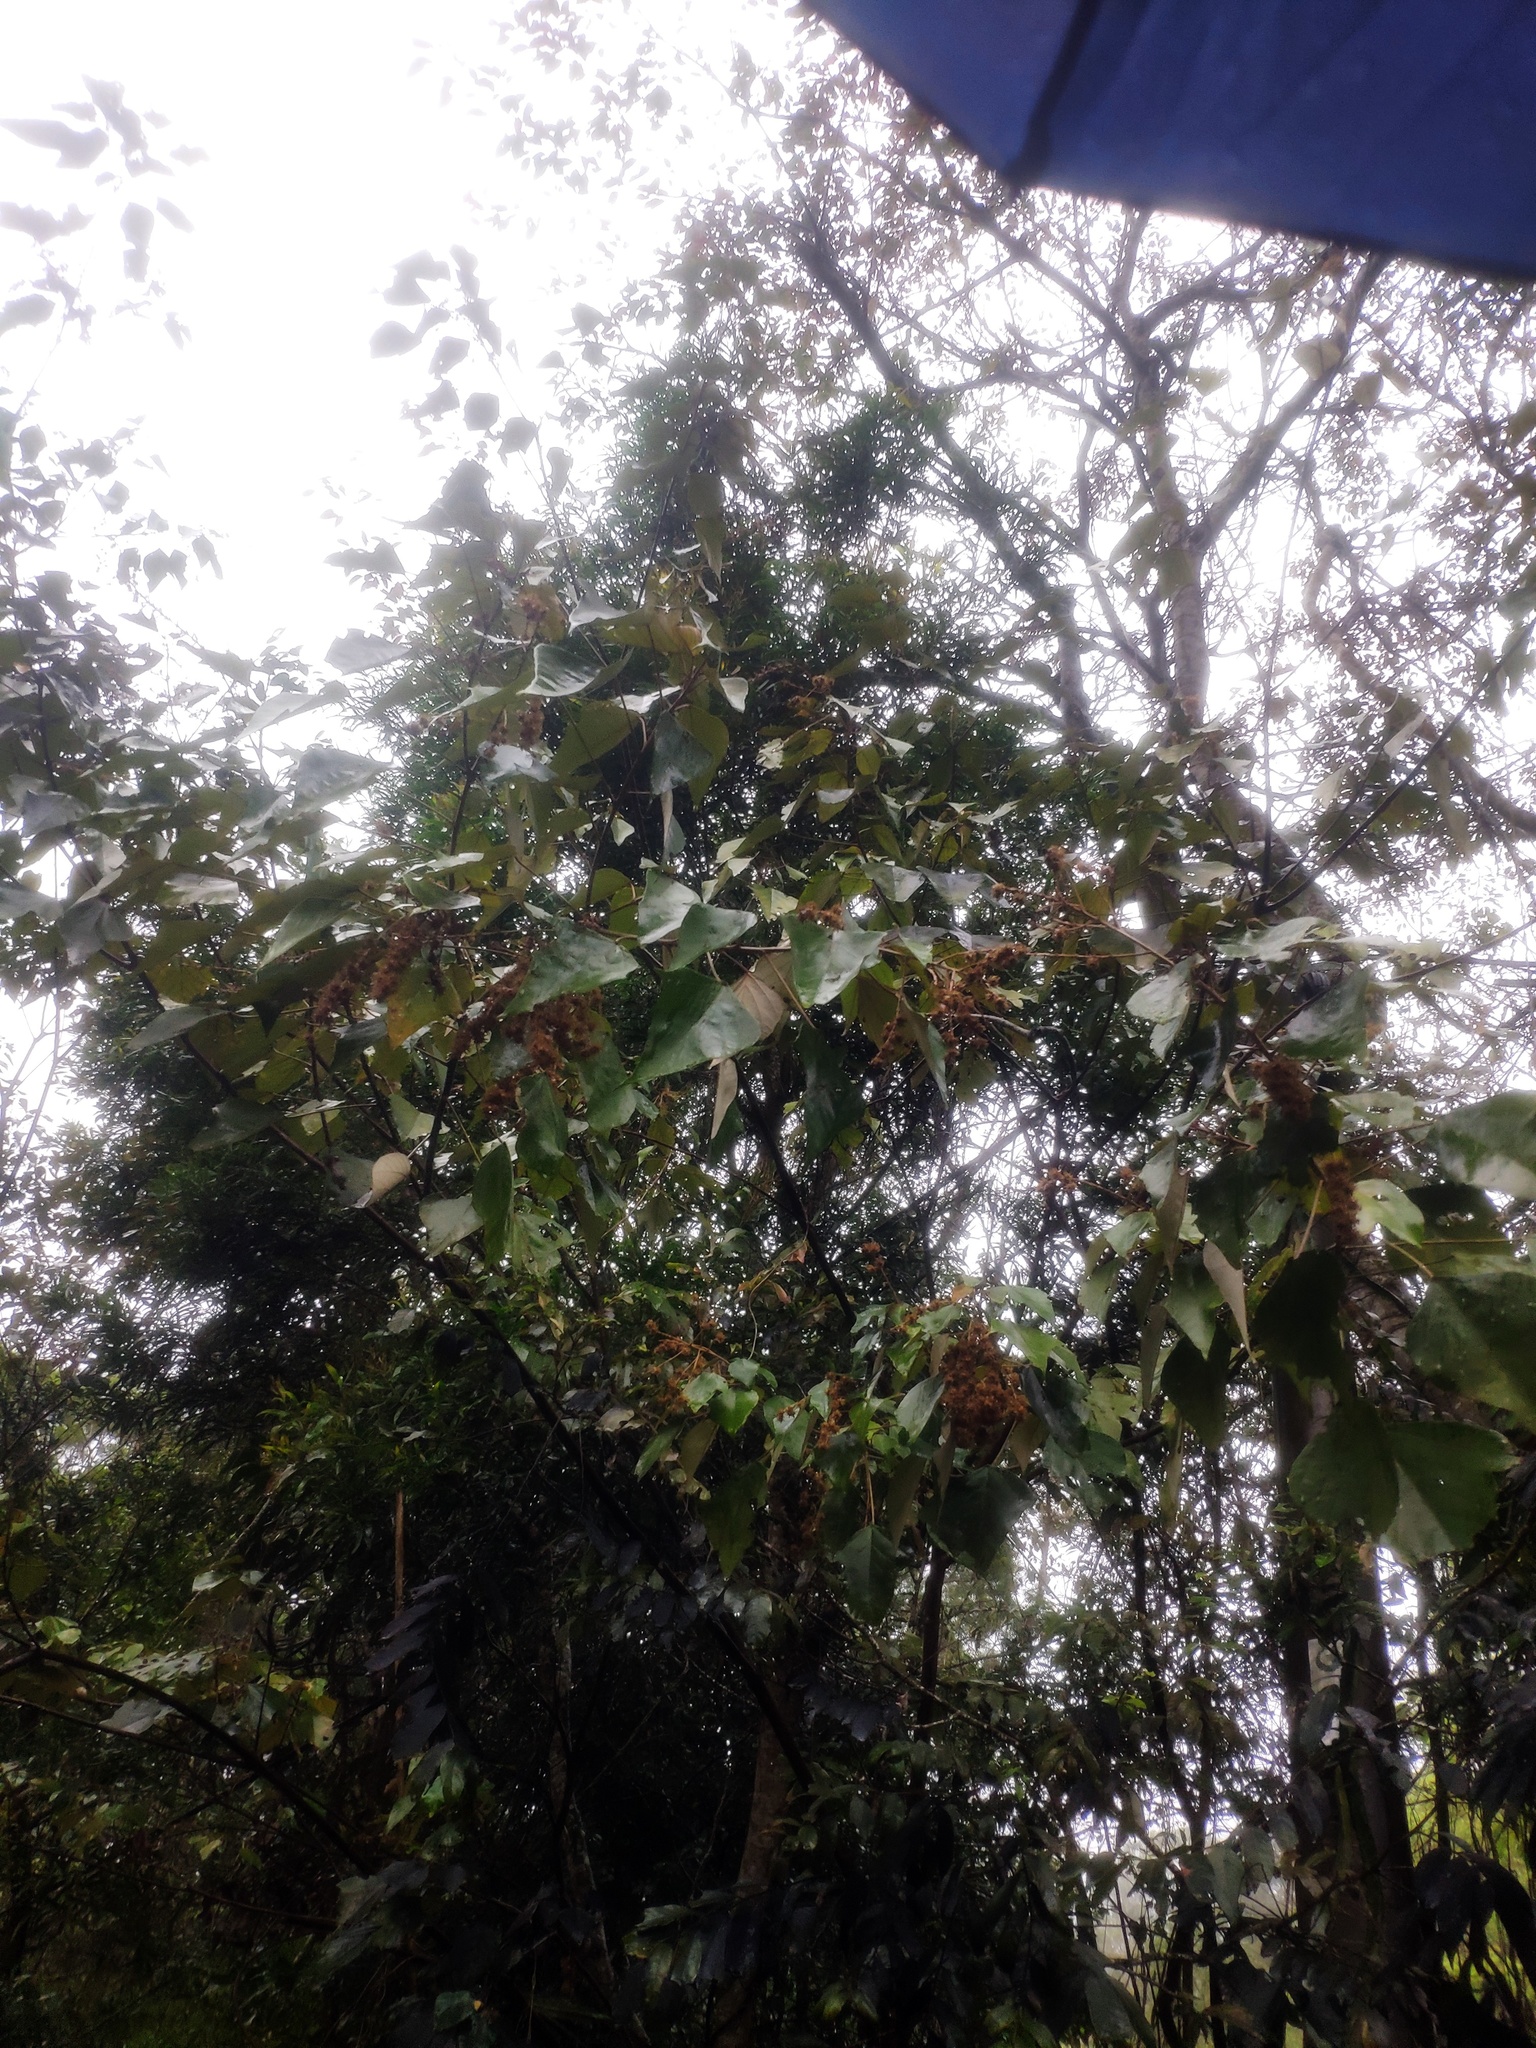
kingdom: Plantae
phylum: Tracheophyta
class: Magnoliopsida
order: Malpighiales
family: Euphorbiaceae
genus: Mallotus
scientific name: Mallotus paniculatus
